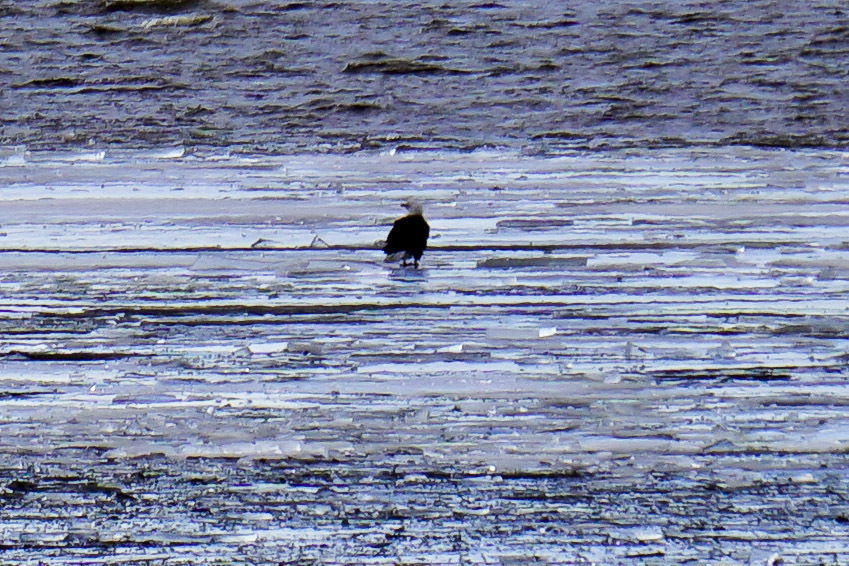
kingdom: Animalia
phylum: Chordata
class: Aves
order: Accipitriformes
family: Accipitridae
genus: Haliaeetus
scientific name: Haliaeetus leucocephalus
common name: Bald eagle
